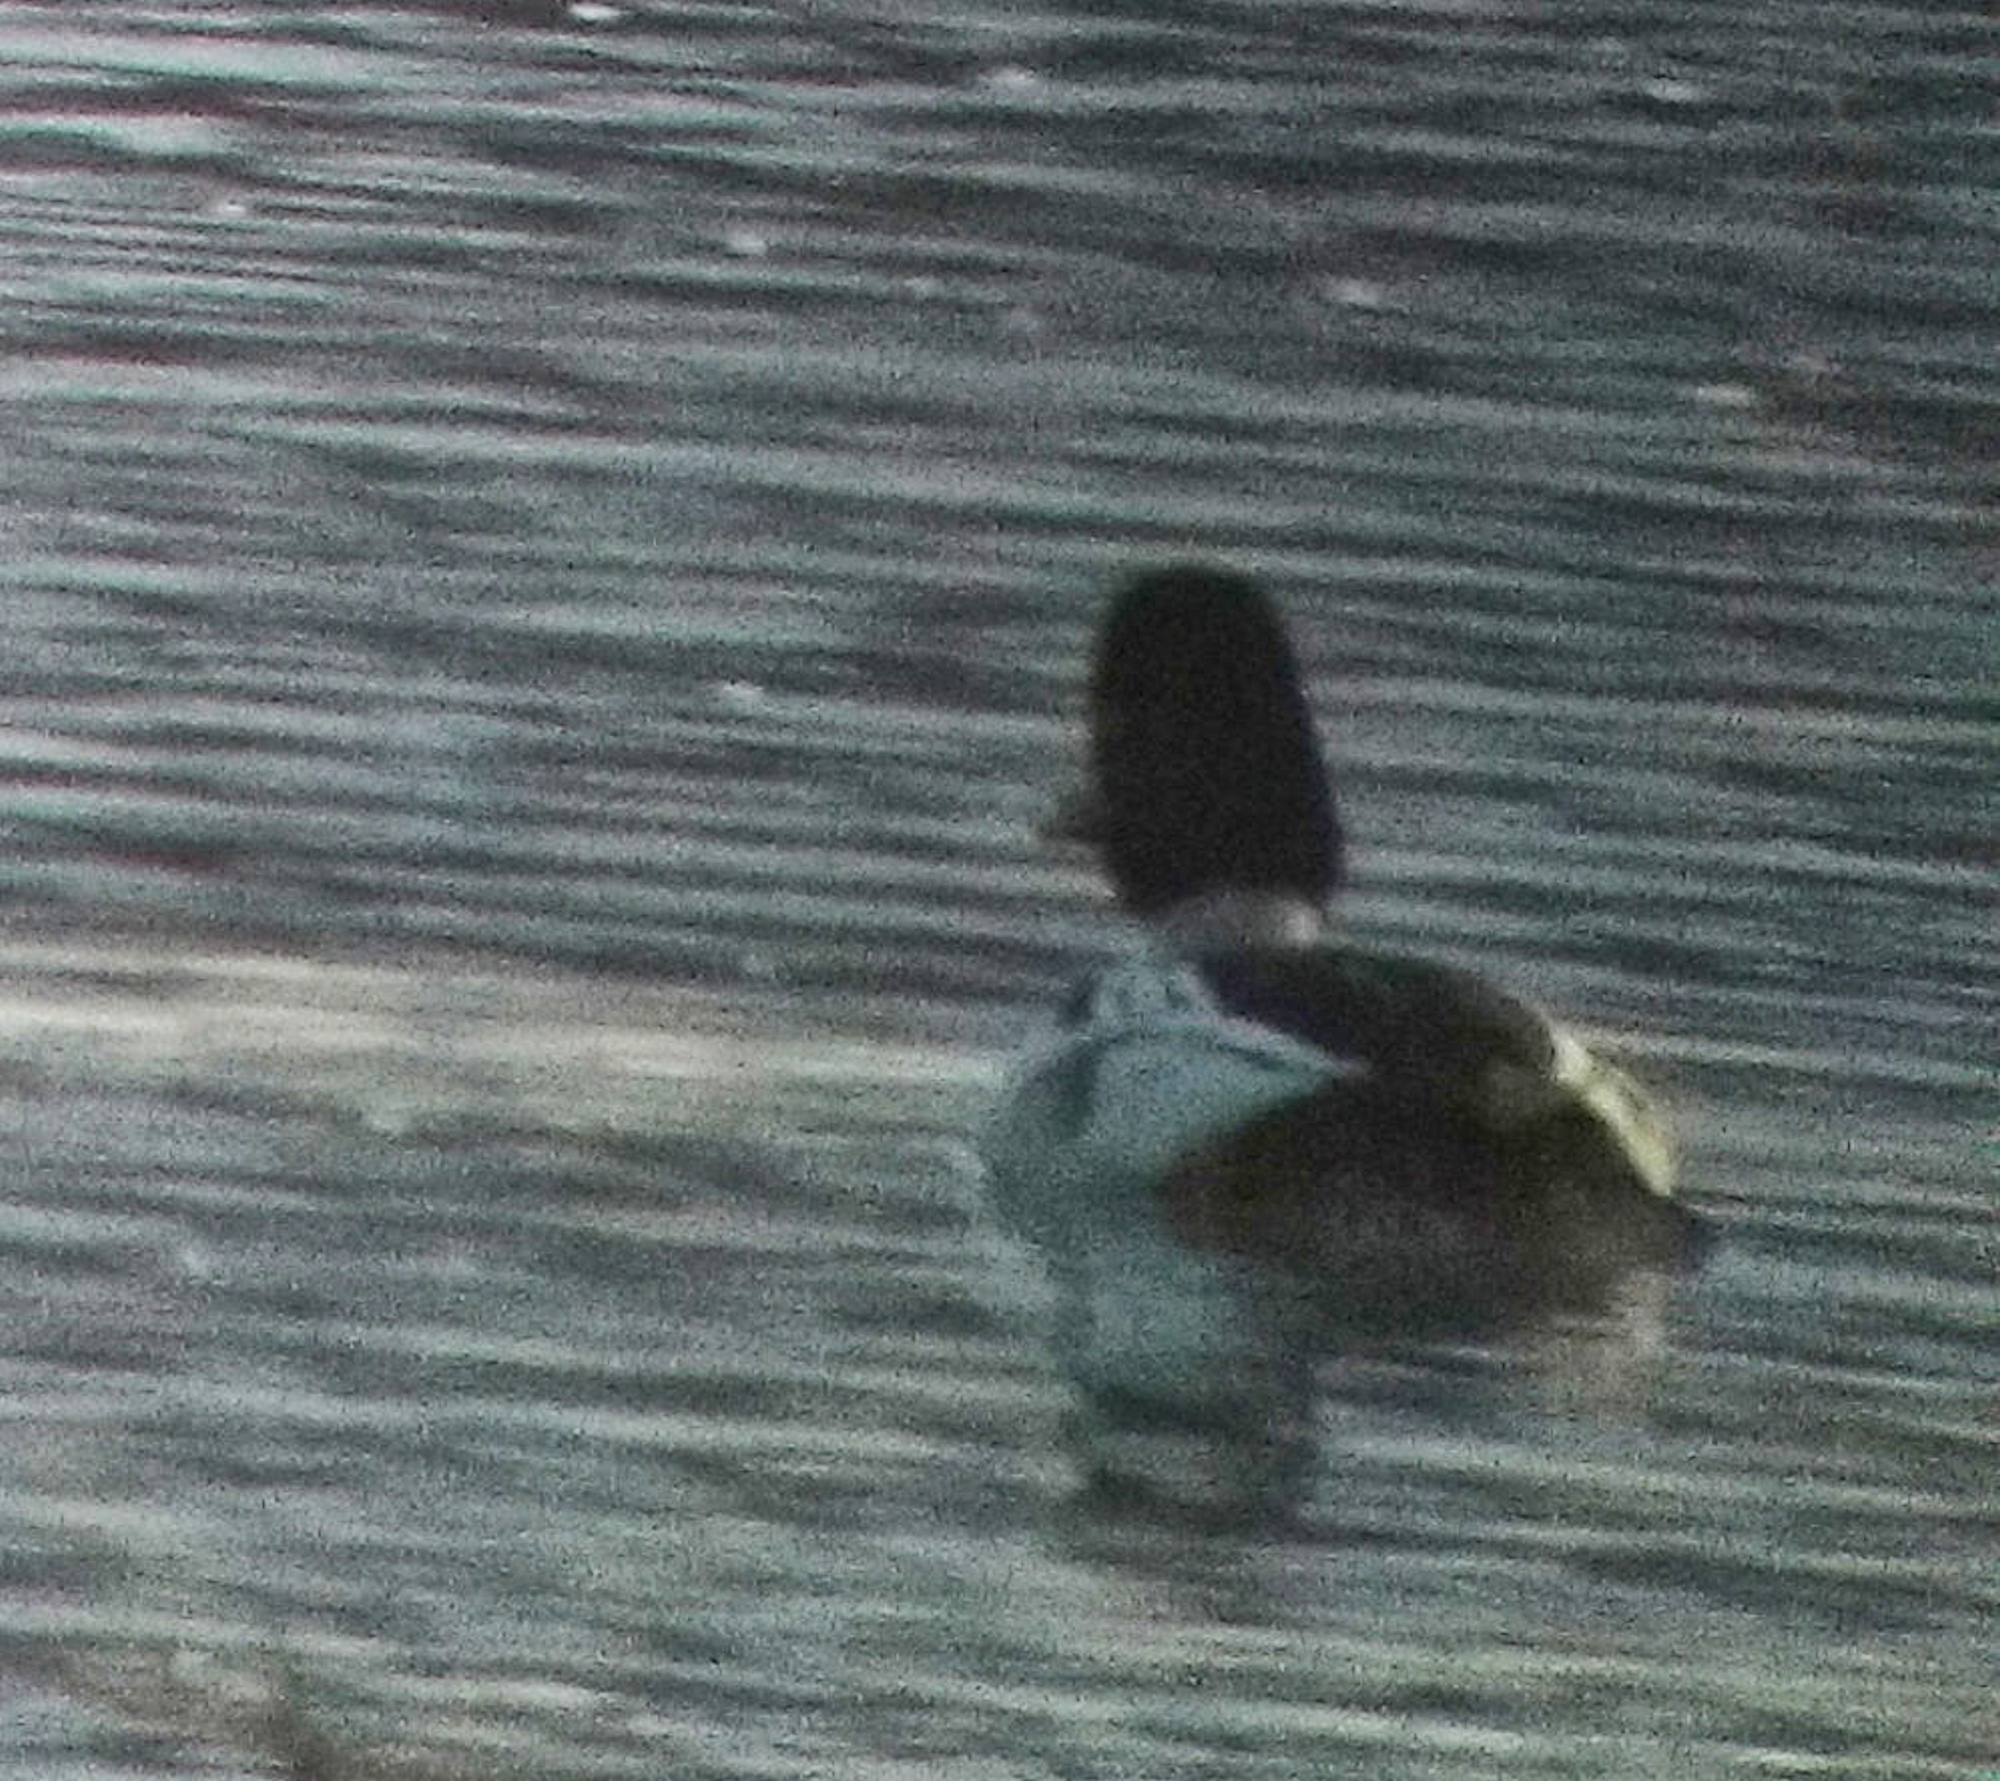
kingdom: Animalia
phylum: Chordata
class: Aves
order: Anseriformes
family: Anatidae
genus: Bucephala
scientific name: Bucephala clangula
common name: Common goldeneye
